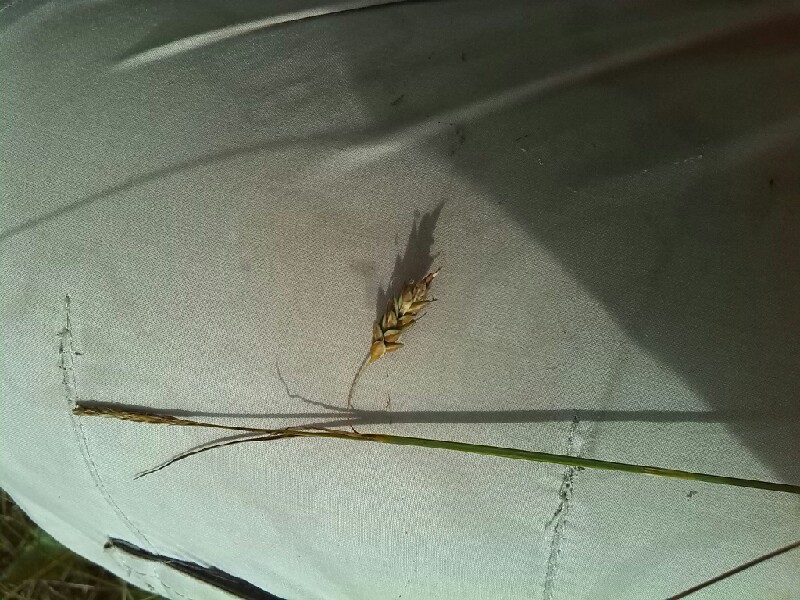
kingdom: Plantae
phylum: Tracheophyta
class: Liliopsida
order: Poales
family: Cyperaceae
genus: Carex
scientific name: Carex limosa
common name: Bog sedge
